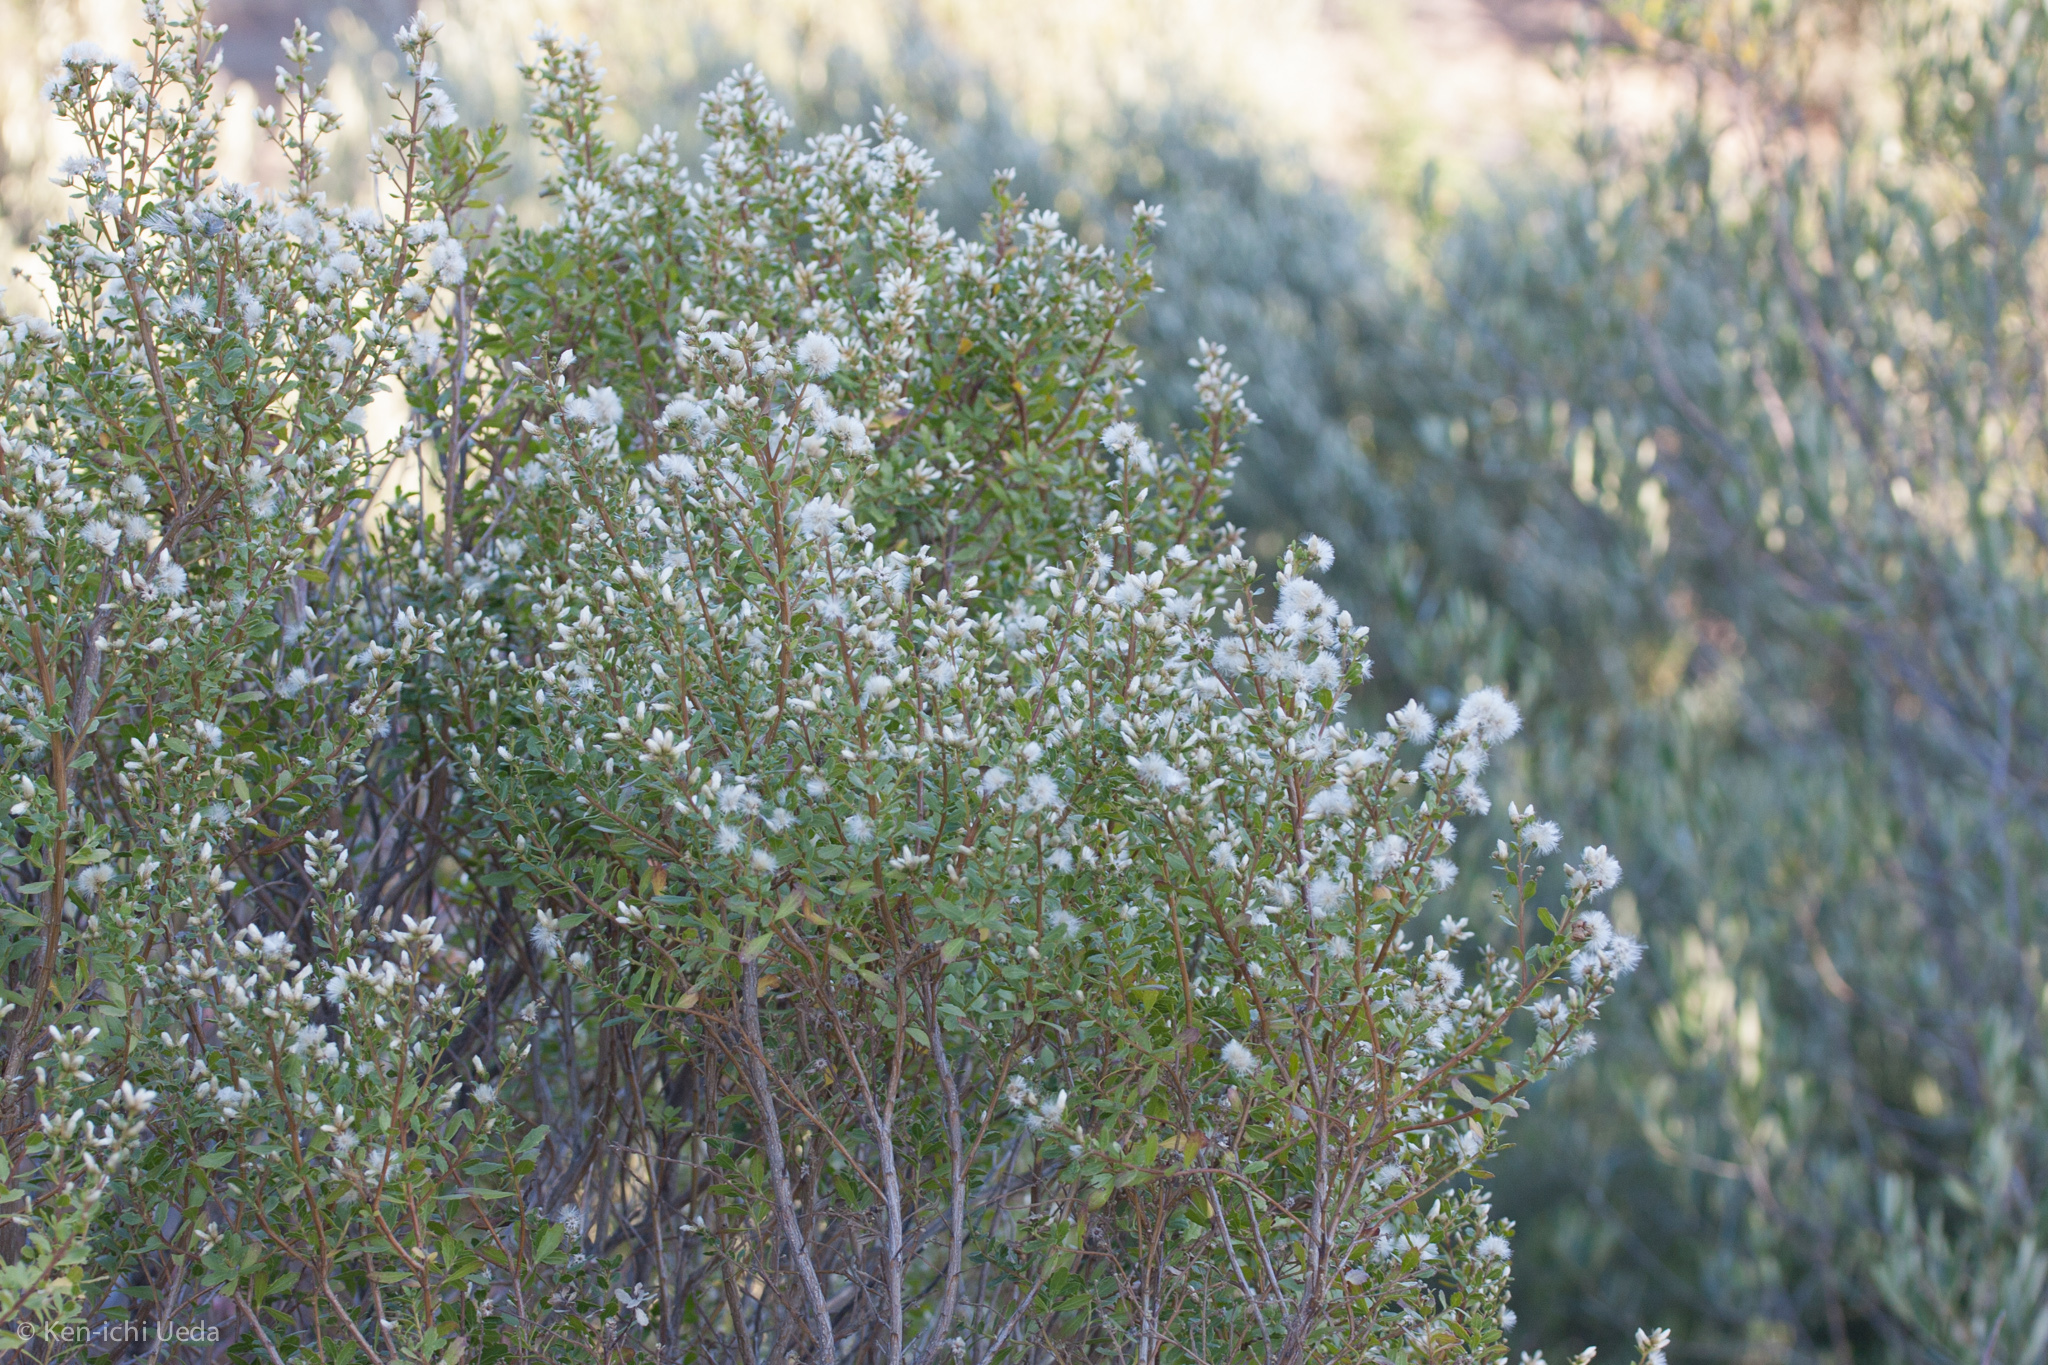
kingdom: Plantae
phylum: Tracheophyta
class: Magnoliopsida
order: Asterales
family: Asteraceae
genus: Baccharis
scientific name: Baccharis pilularis
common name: Coyotebrush
